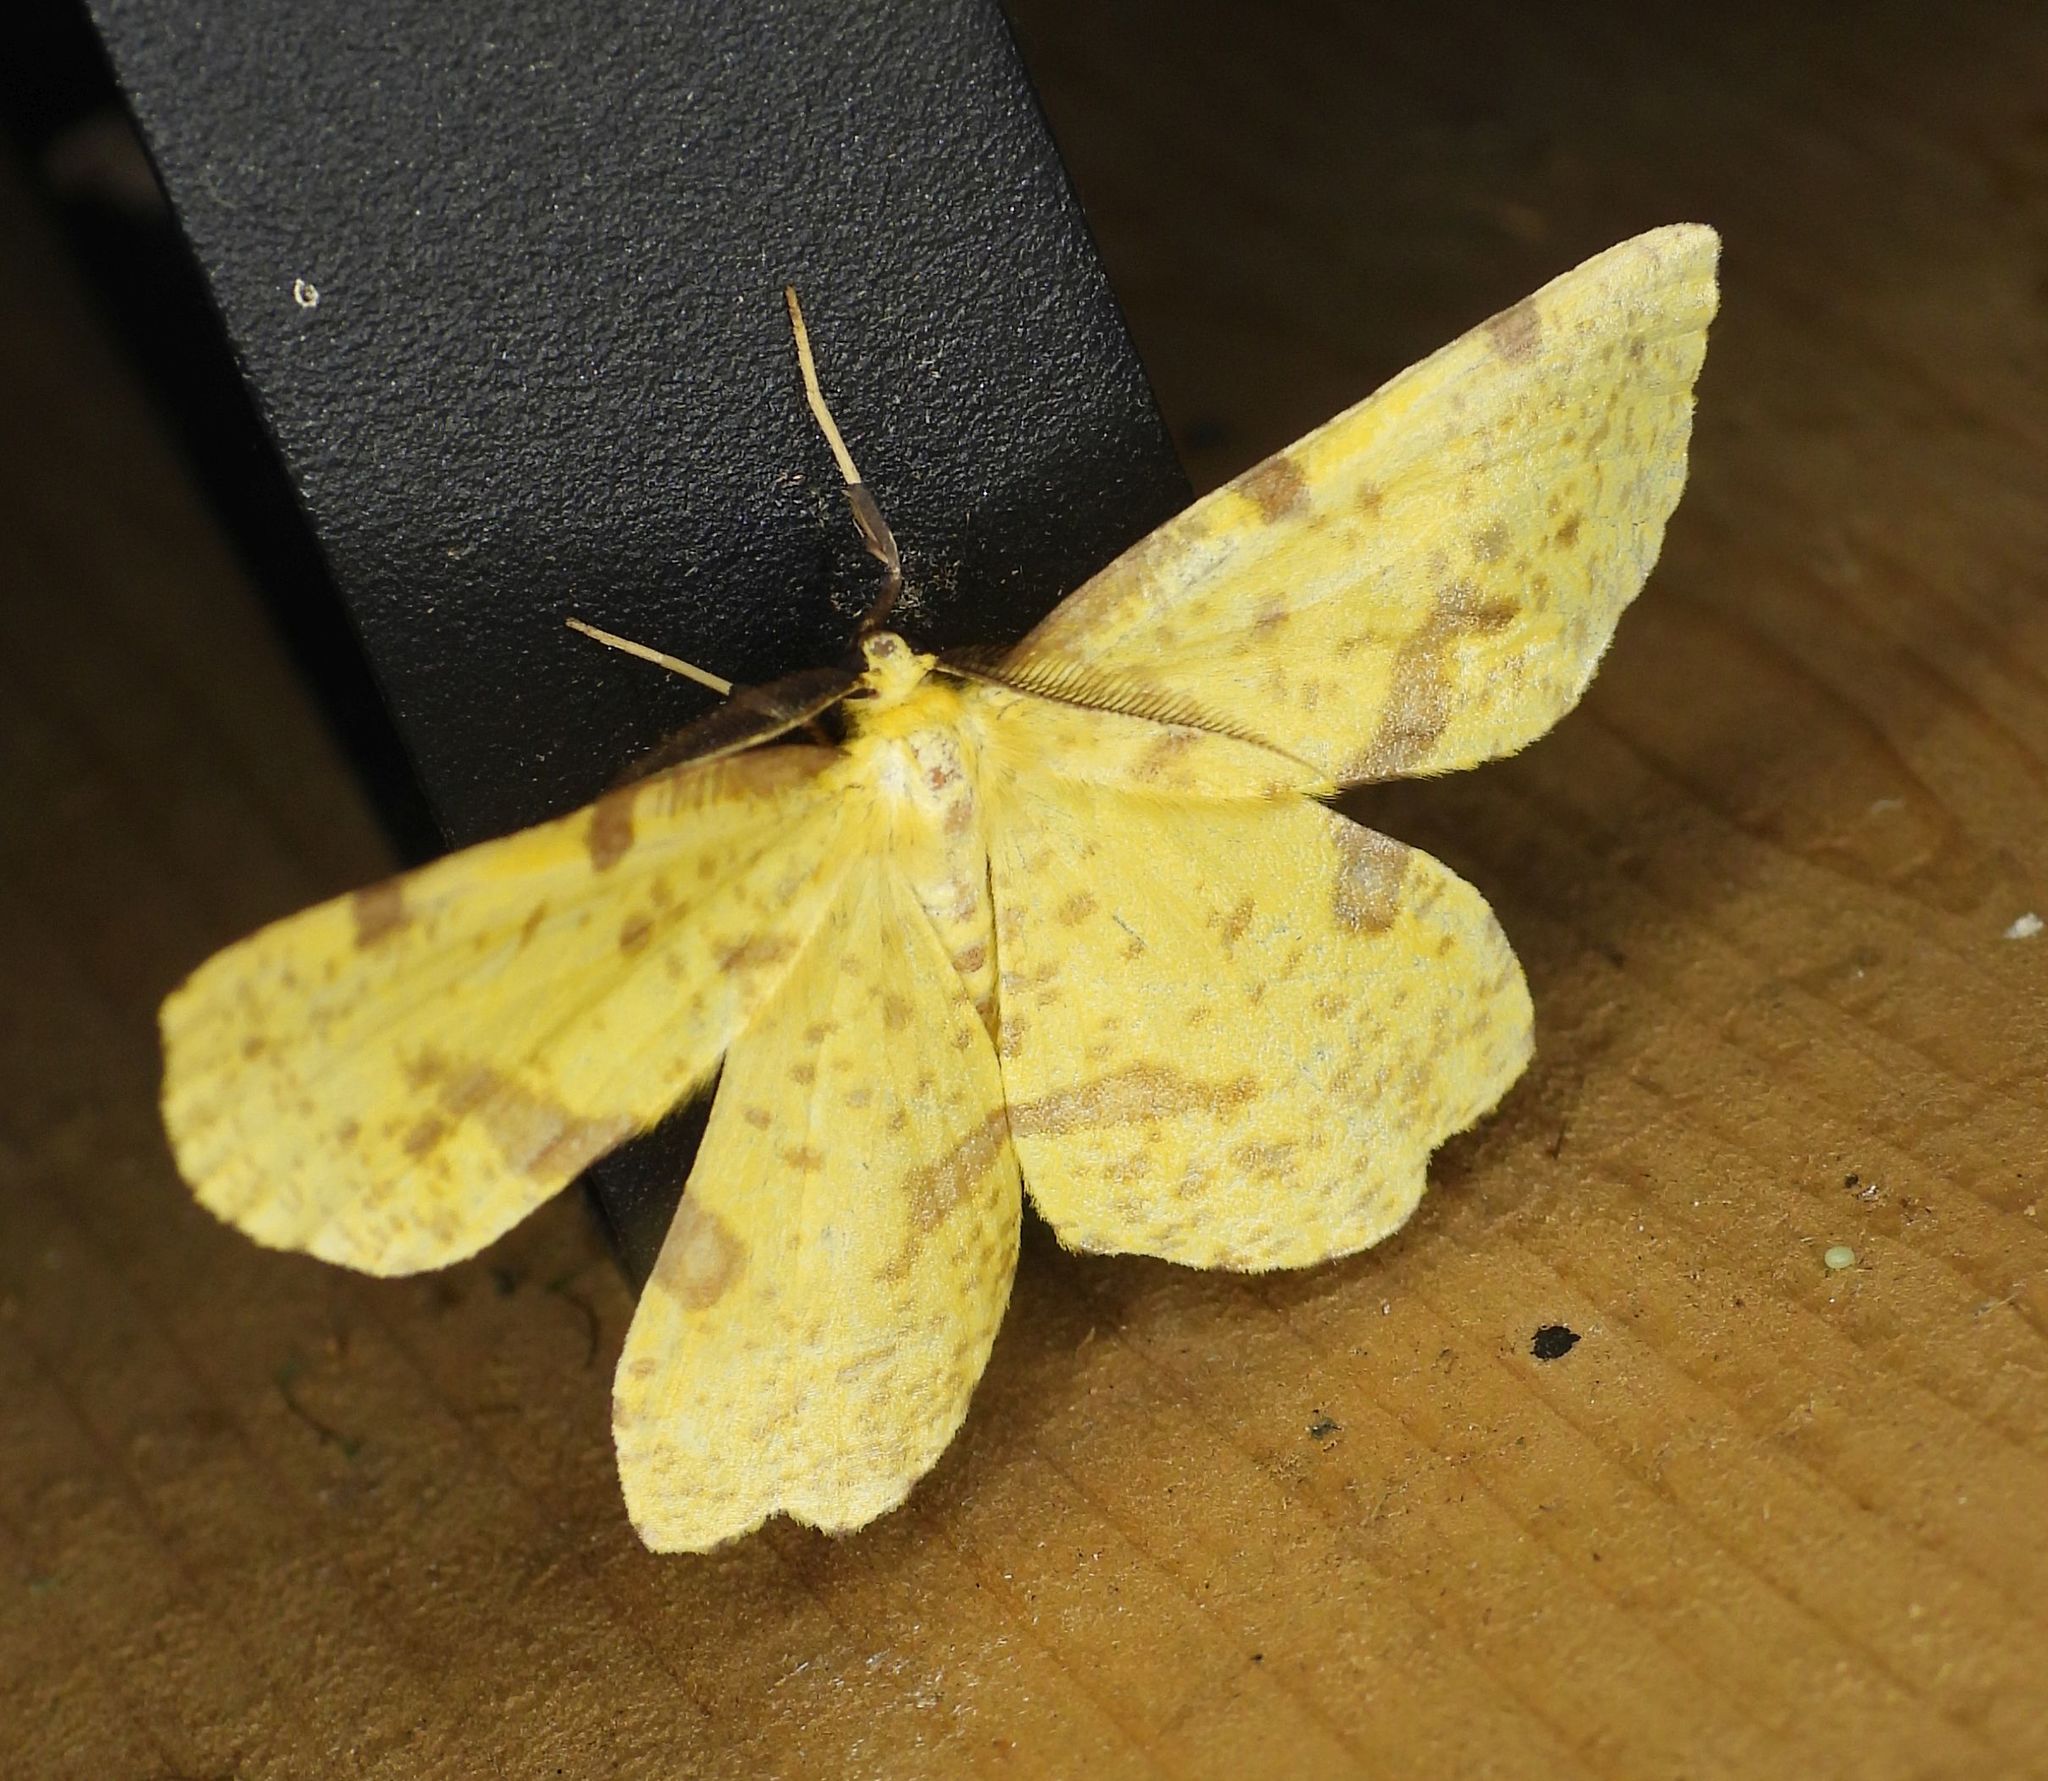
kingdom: Animalia
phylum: Arthropoda
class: Insecta
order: Lepidoptera
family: Geometridae
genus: Xanthotype
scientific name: Xanthotype
